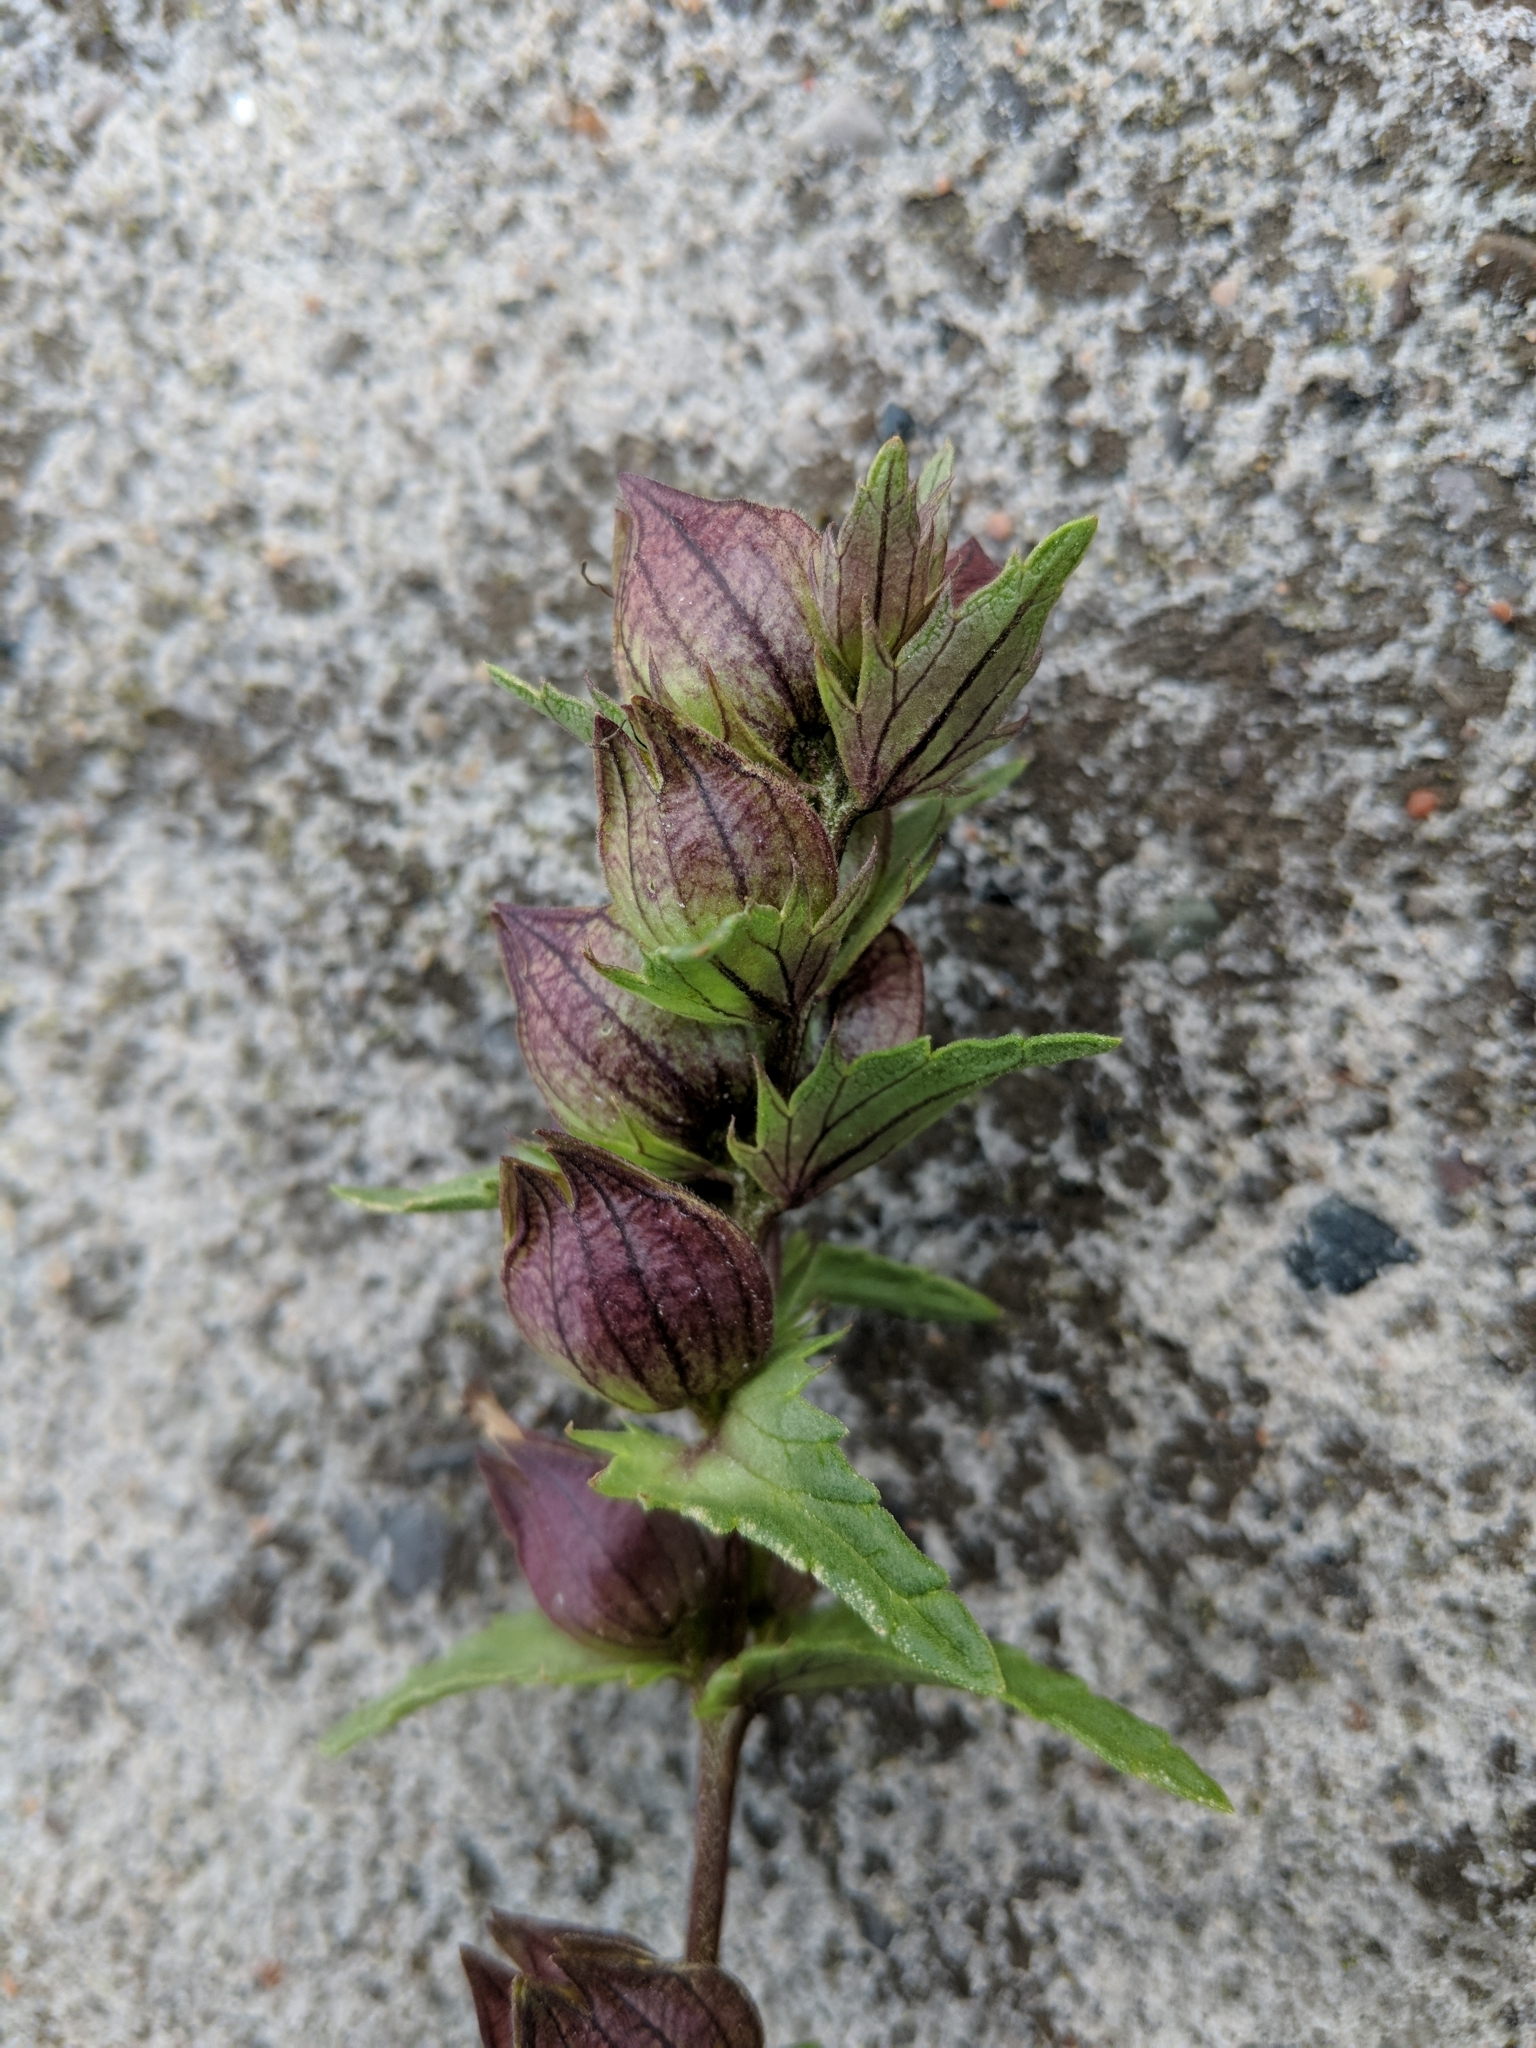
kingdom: Plantae
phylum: Tracheophyta
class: Magnoliopsida
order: Lamiales
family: Orobanchaceae
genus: Rhinanthus
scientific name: Rhinanthus groenlandicus
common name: Little yellow rattle
